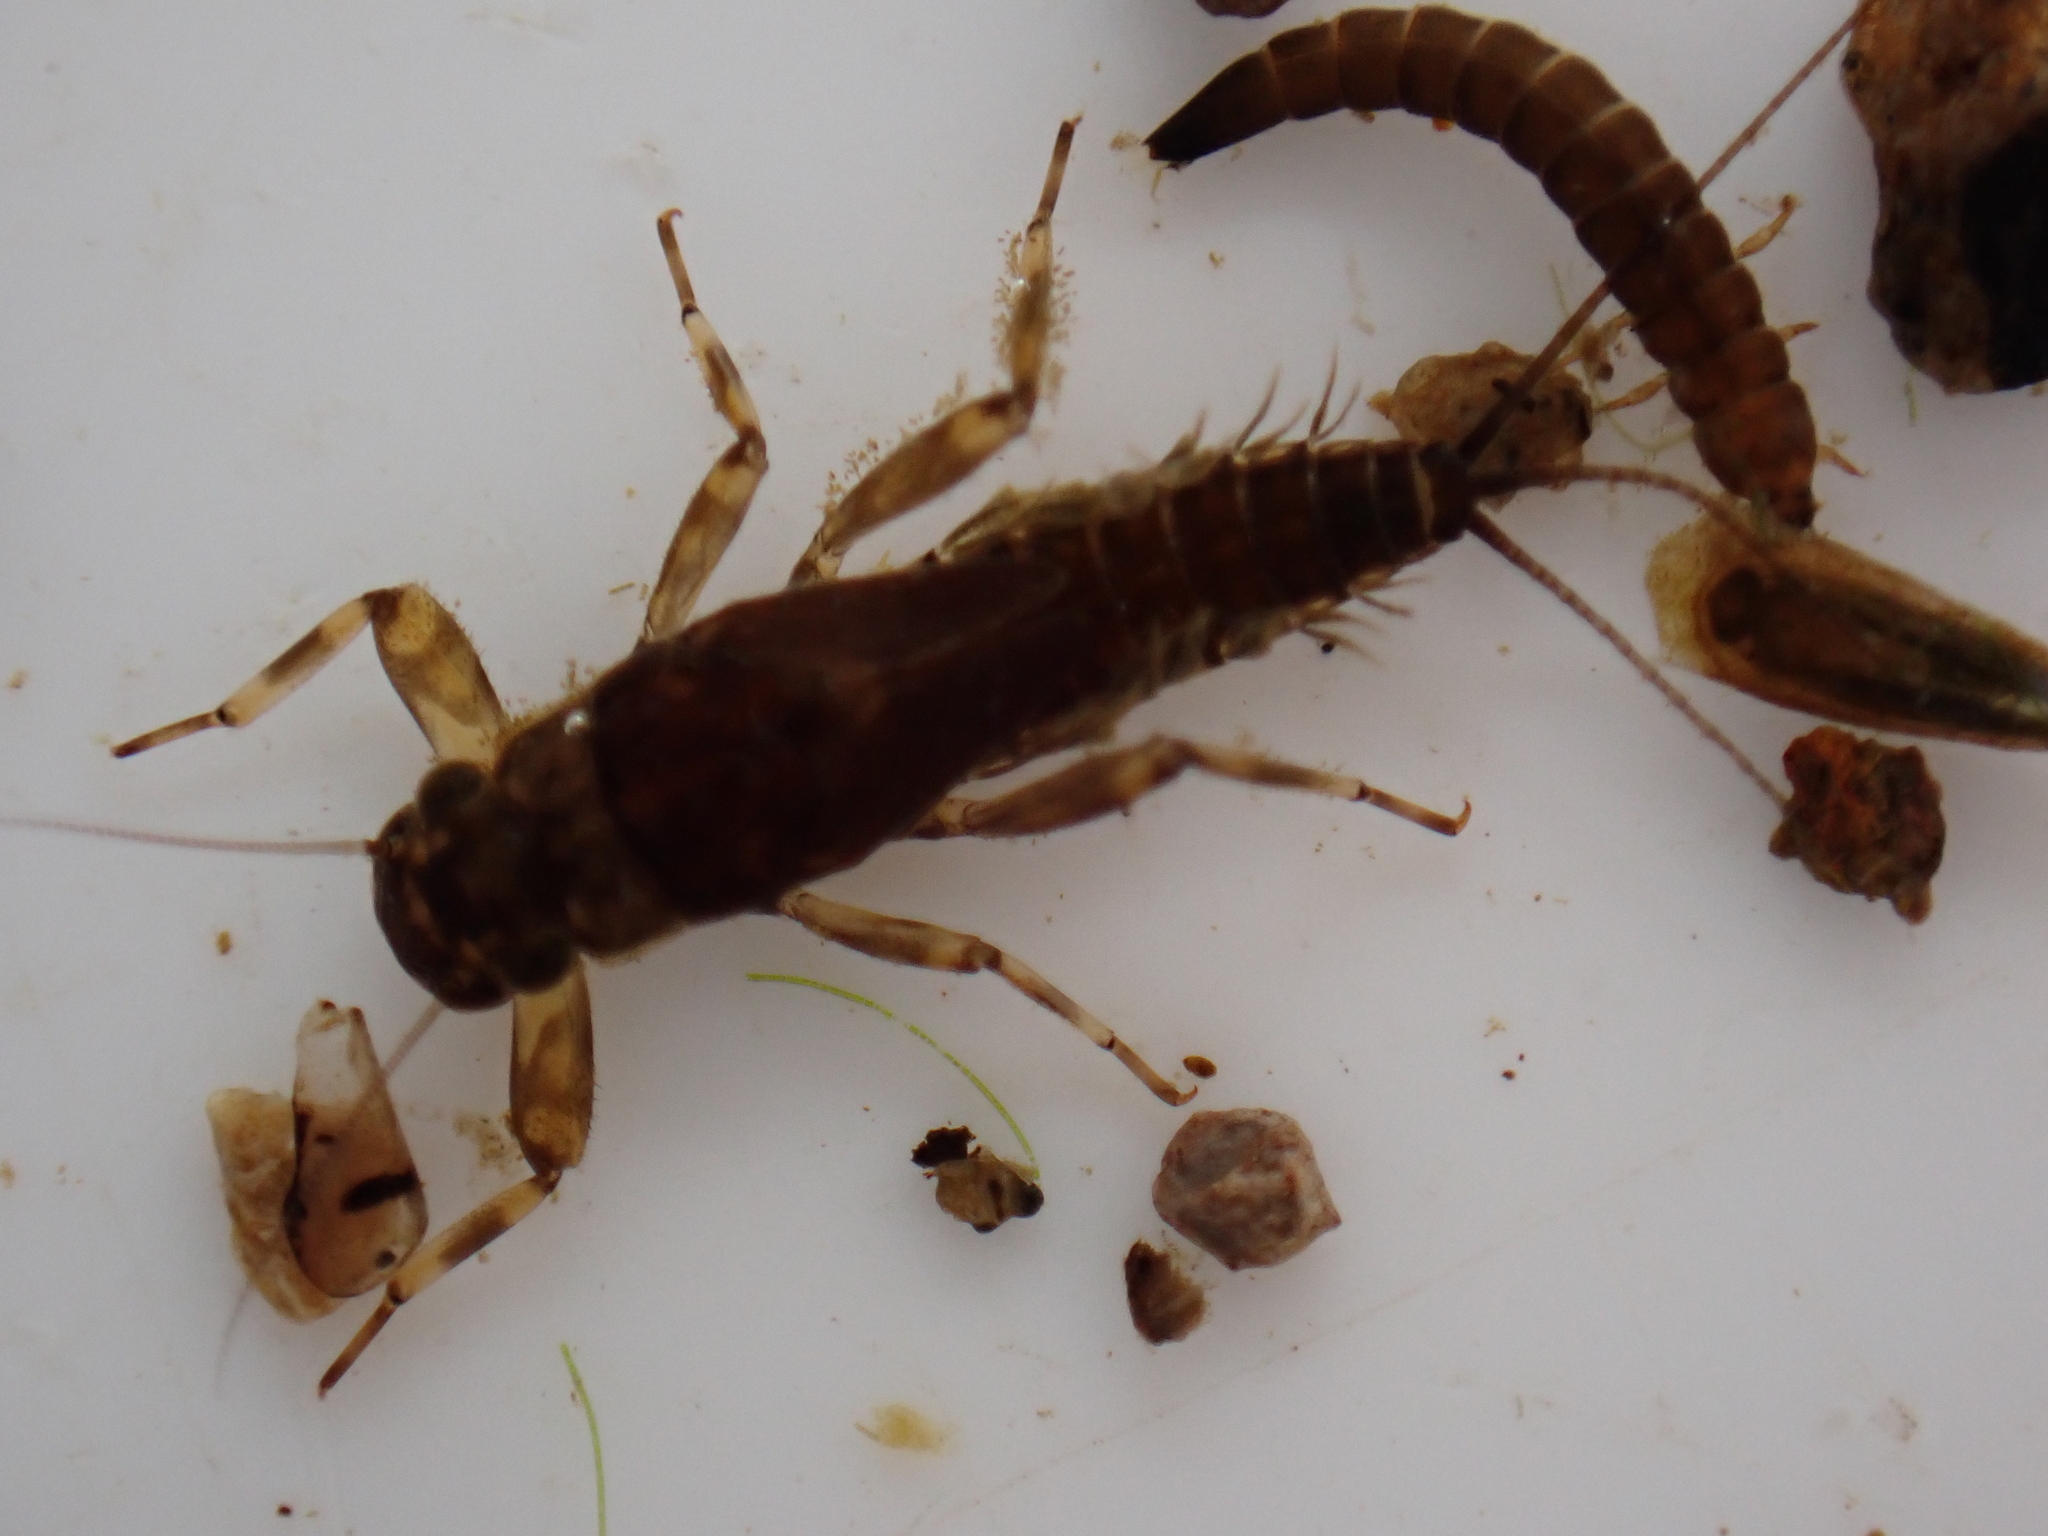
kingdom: Animalia
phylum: Arthropoda
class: Insecta
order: Ephemeroptera
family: Leptophlebiidae
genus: Austroclima
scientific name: Austroclima sepia
